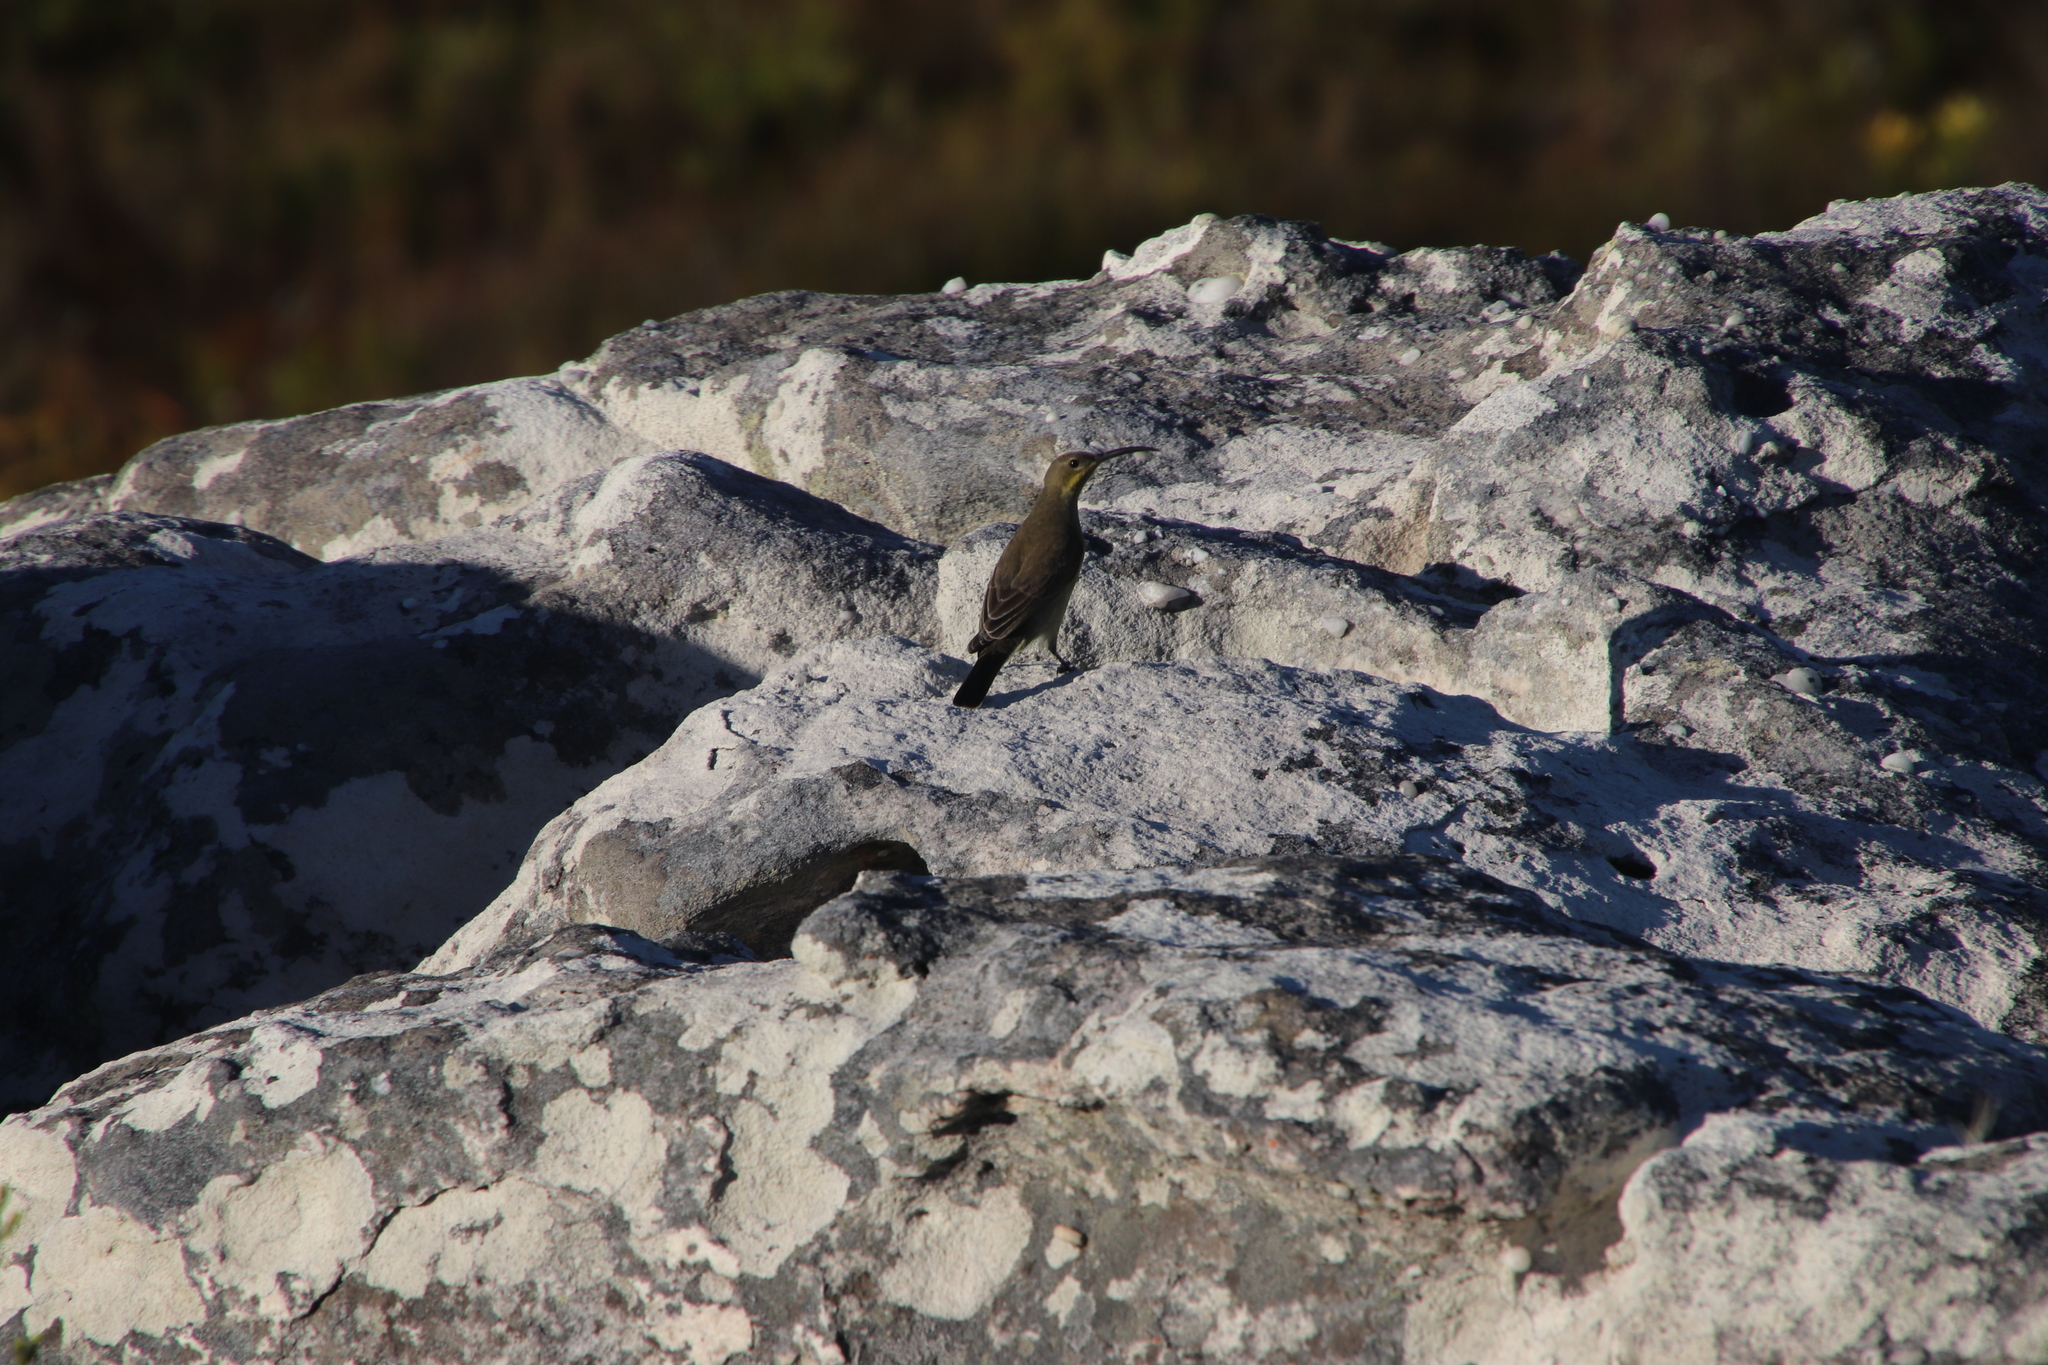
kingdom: Animalia
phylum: Chordata
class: Aves
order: Passeriformes
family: Nectariniidae
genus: Nectarinia
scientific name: Nectarinia famosa
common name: Malachite sunbird
